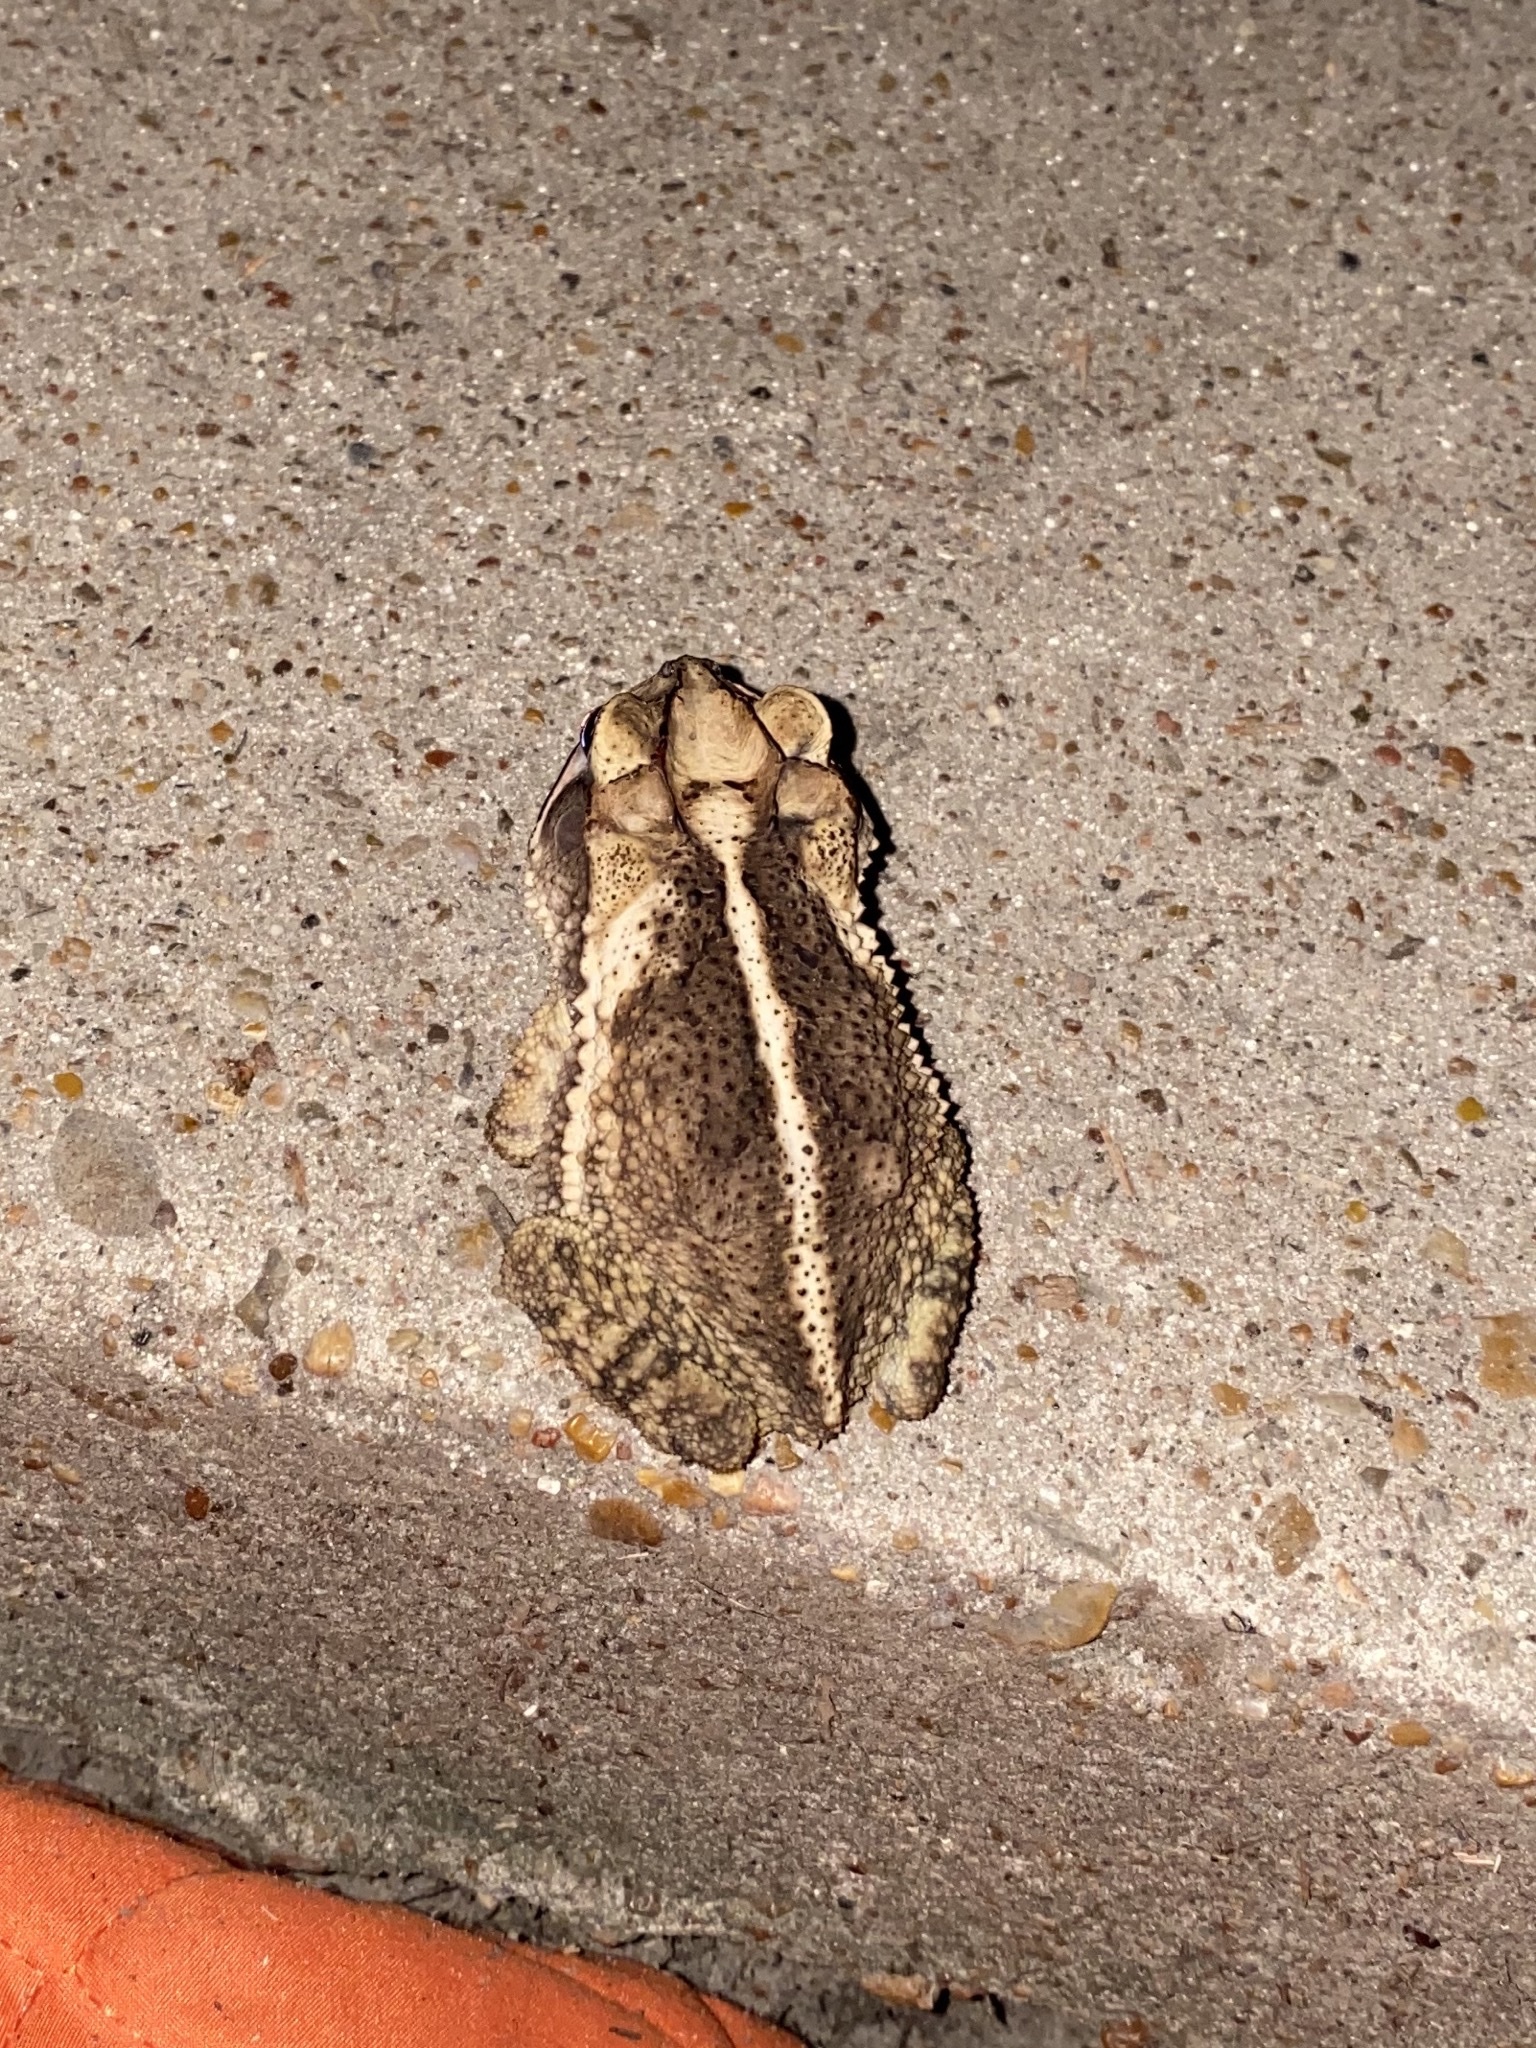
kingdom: Animalia
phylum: Chordata
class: Amphibia
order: Anura
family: Bufonidae
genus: Incilius
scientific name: Incilius nebulifer
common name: Gulf coast toad
